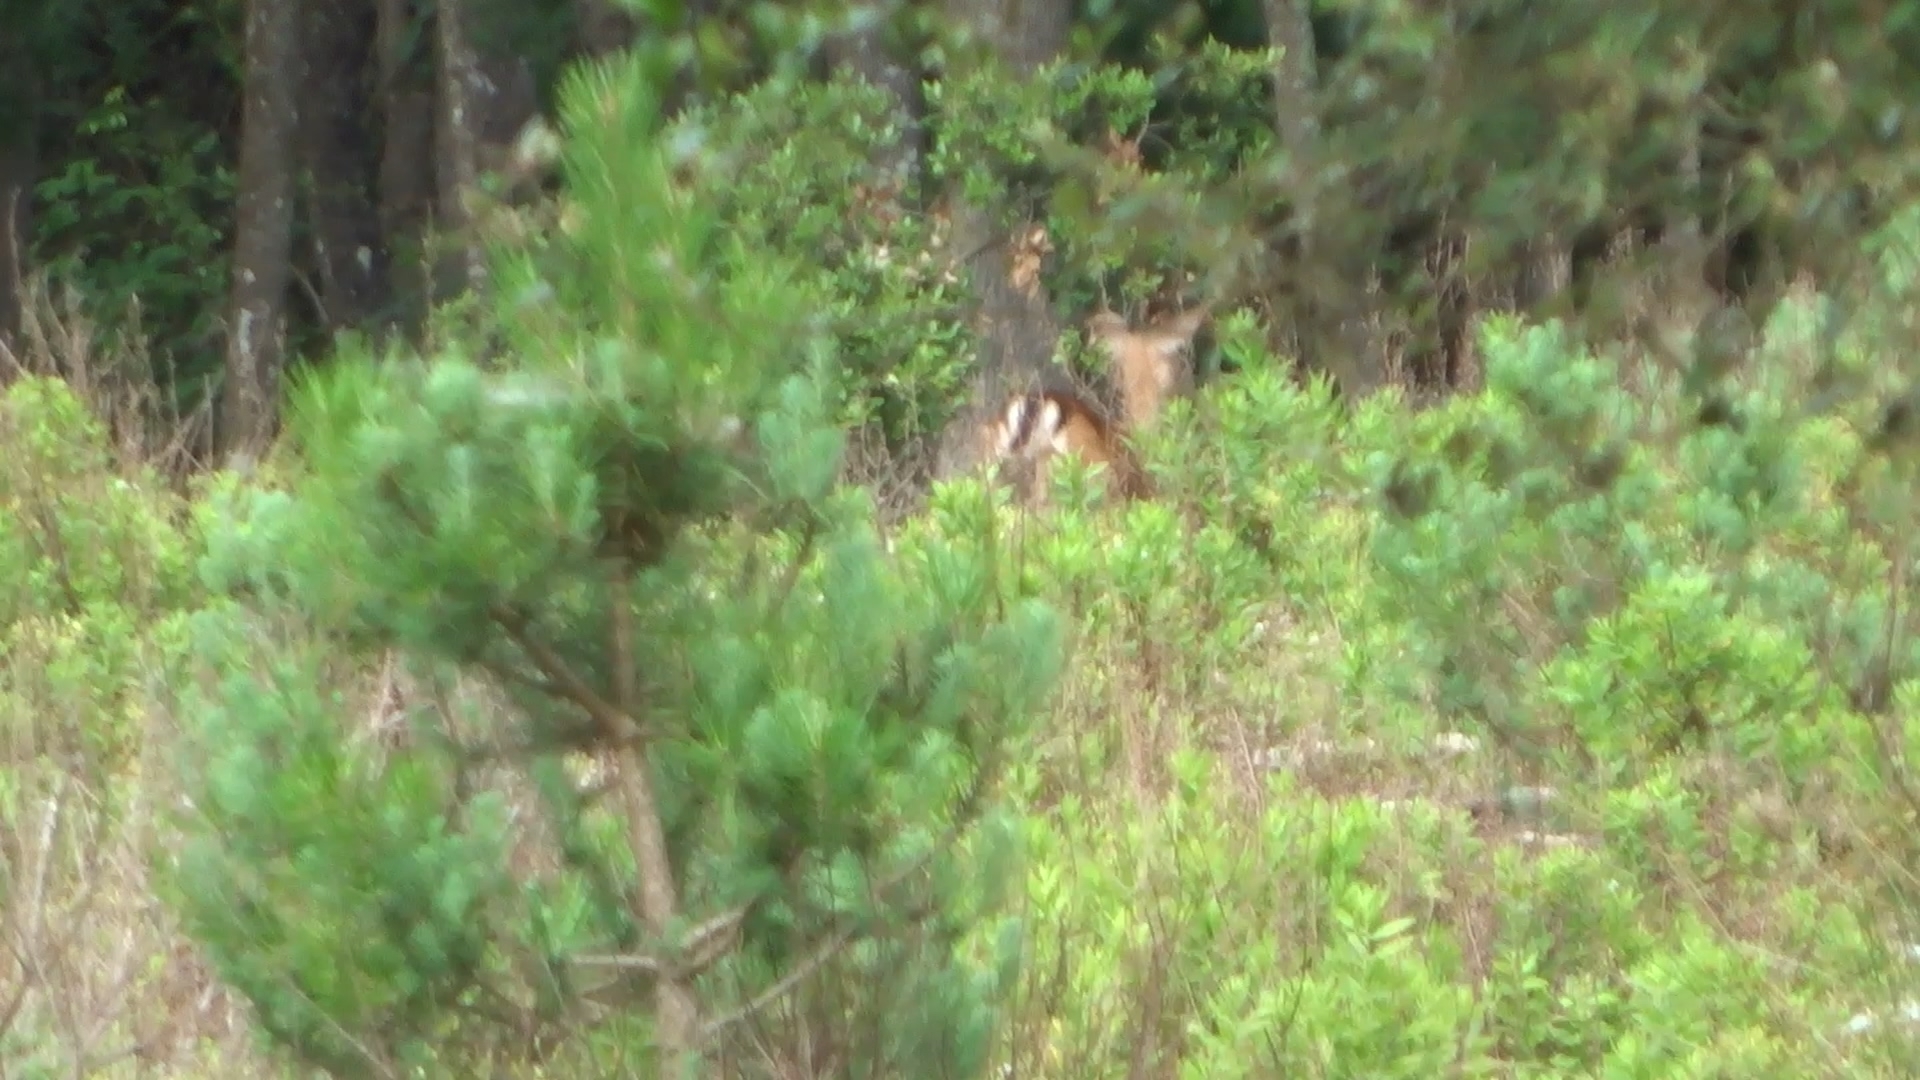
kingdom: Animalia
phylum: Chordata
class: Mammalia
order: Artiodactyla
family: Cervidae
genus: Dama
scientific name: Dama dama
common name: Fallow deer
